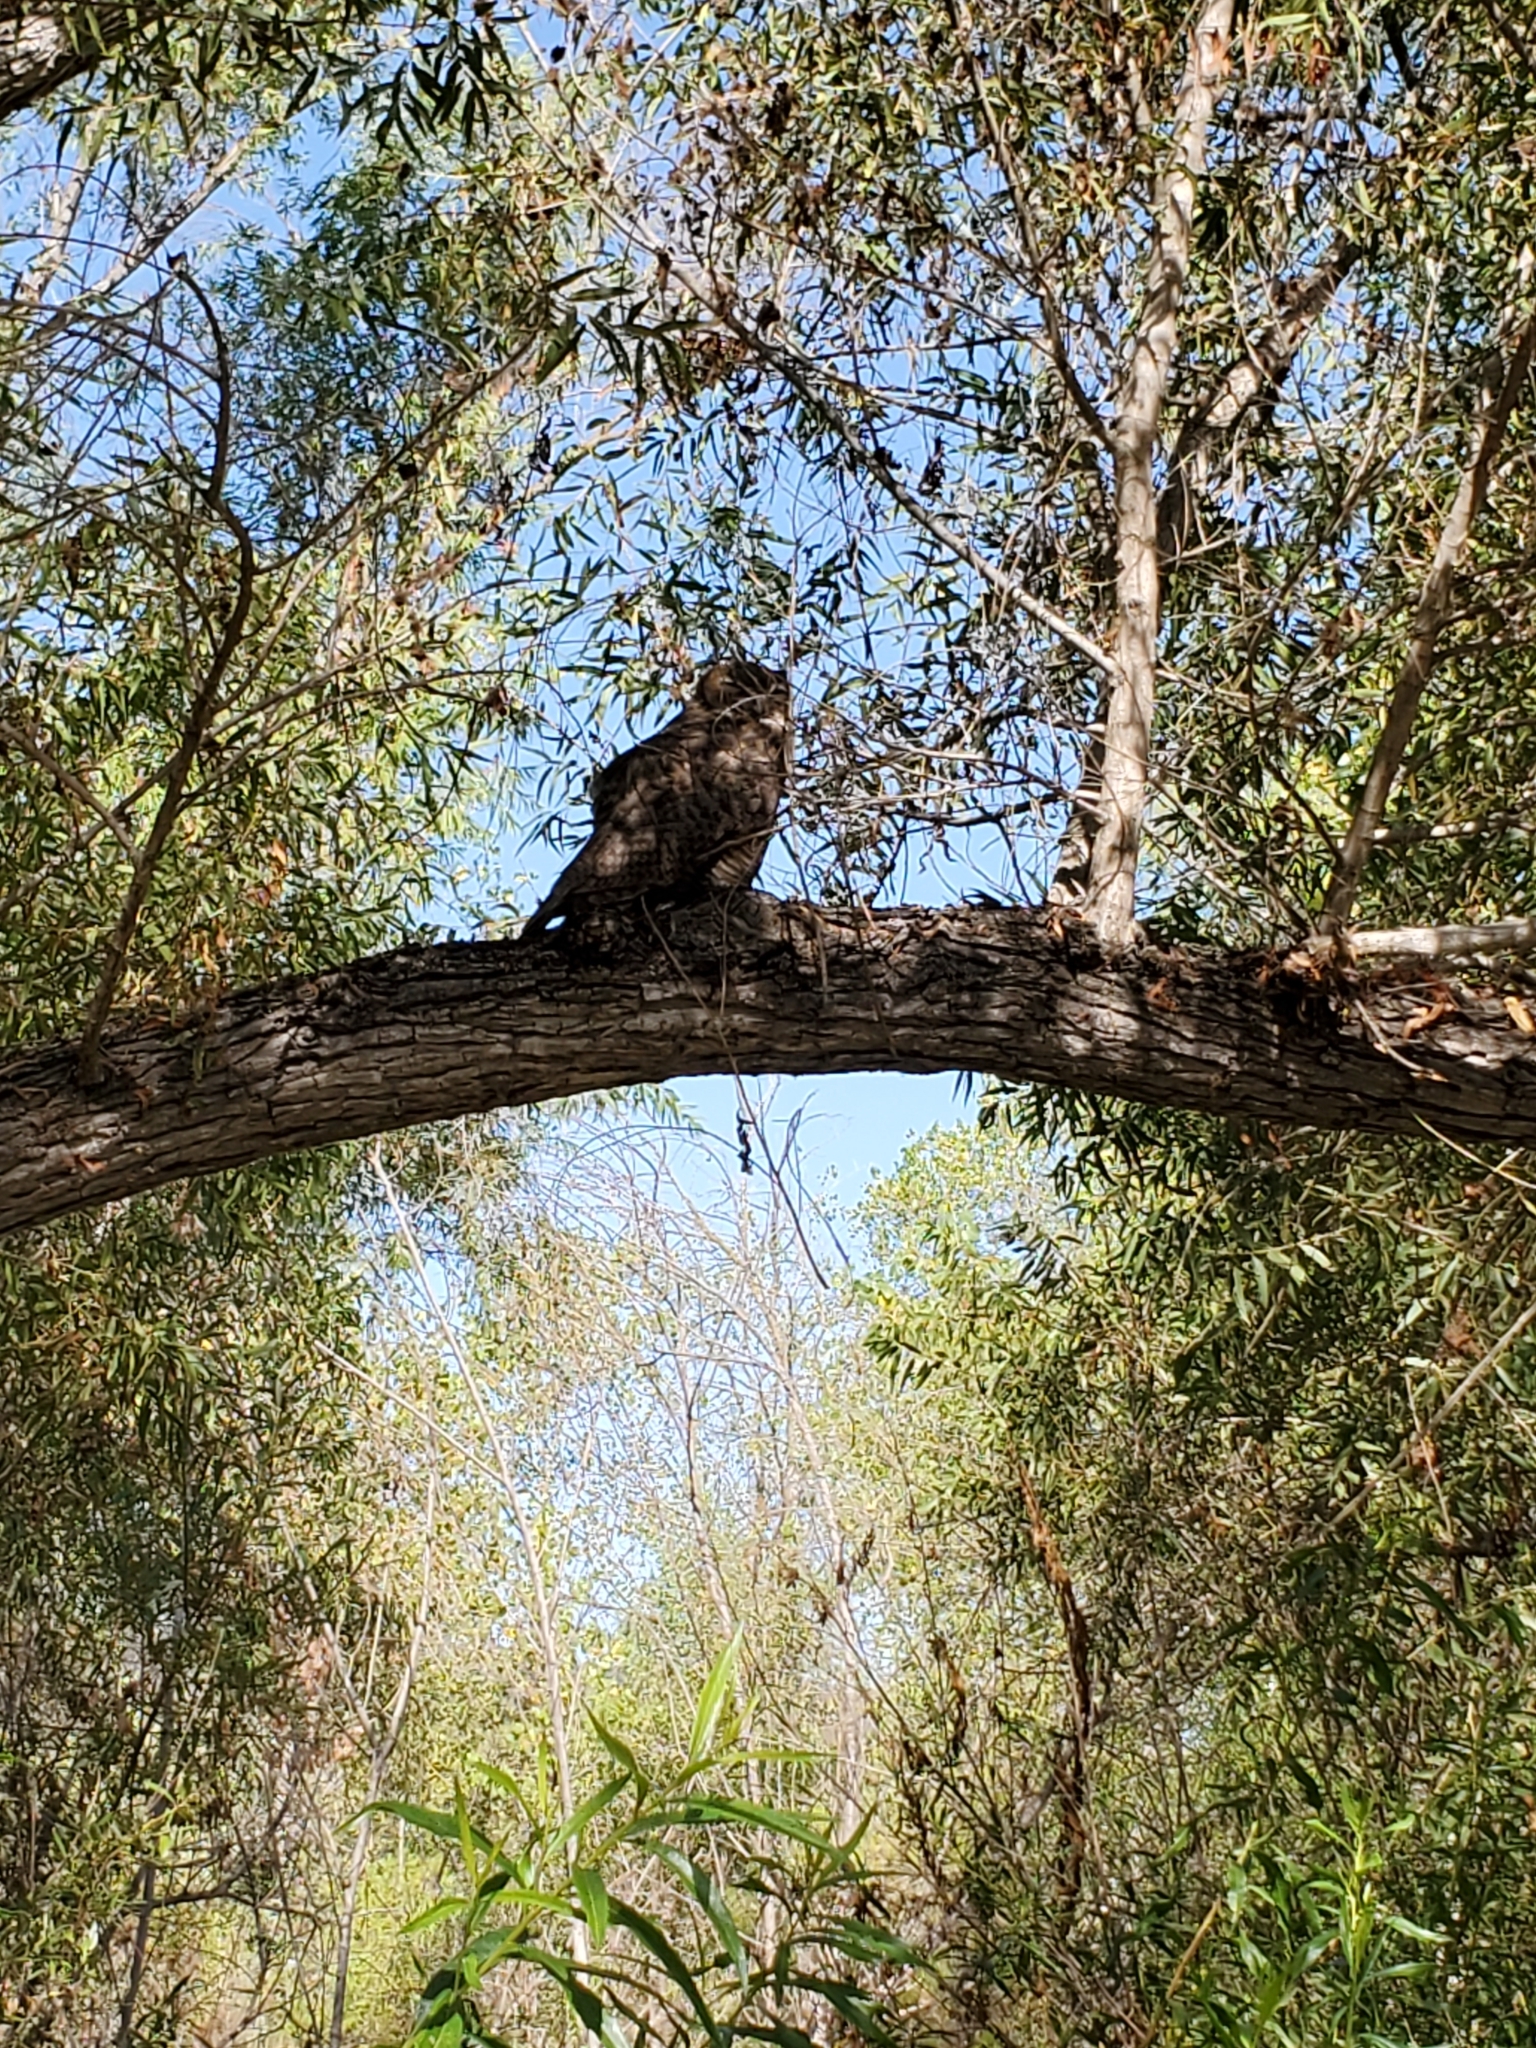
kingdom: Animalia
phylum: Chordata
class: Aves
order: Strigiformes
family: Strigidae
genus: Bubo
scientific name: Bubo virginianus
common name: Great horned owl
